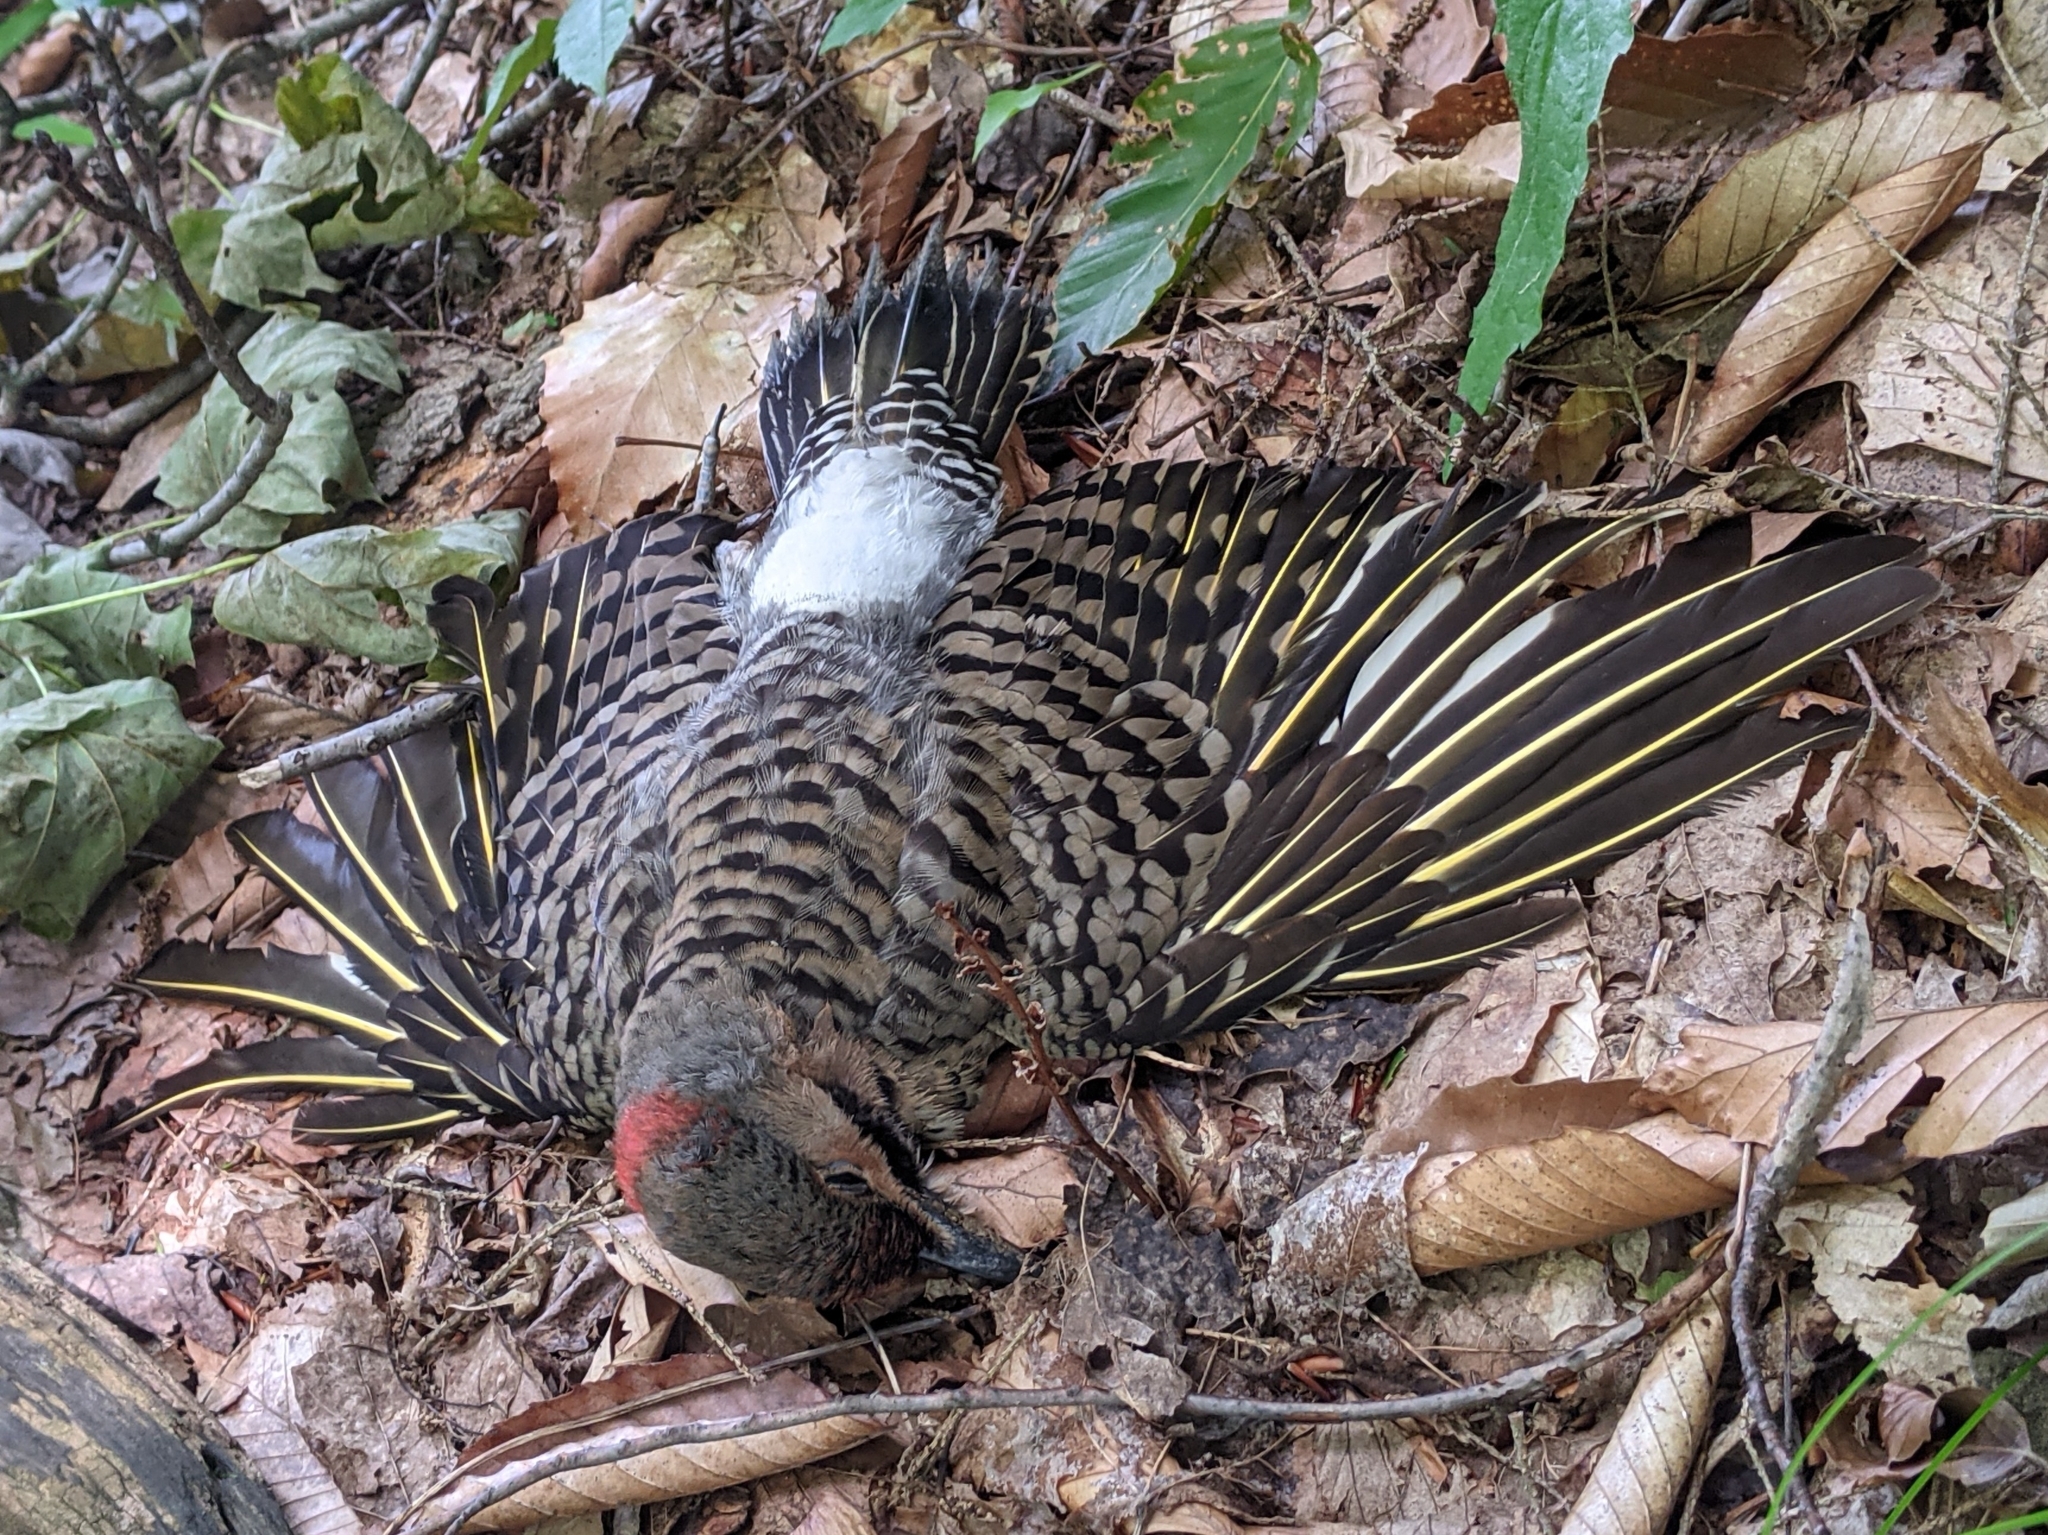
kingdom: Animalia
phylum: Chordata
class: Aves
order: Piciformes
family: Picidae
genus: Colaptes
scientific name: Colaptes auratus
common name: Northern flicker
